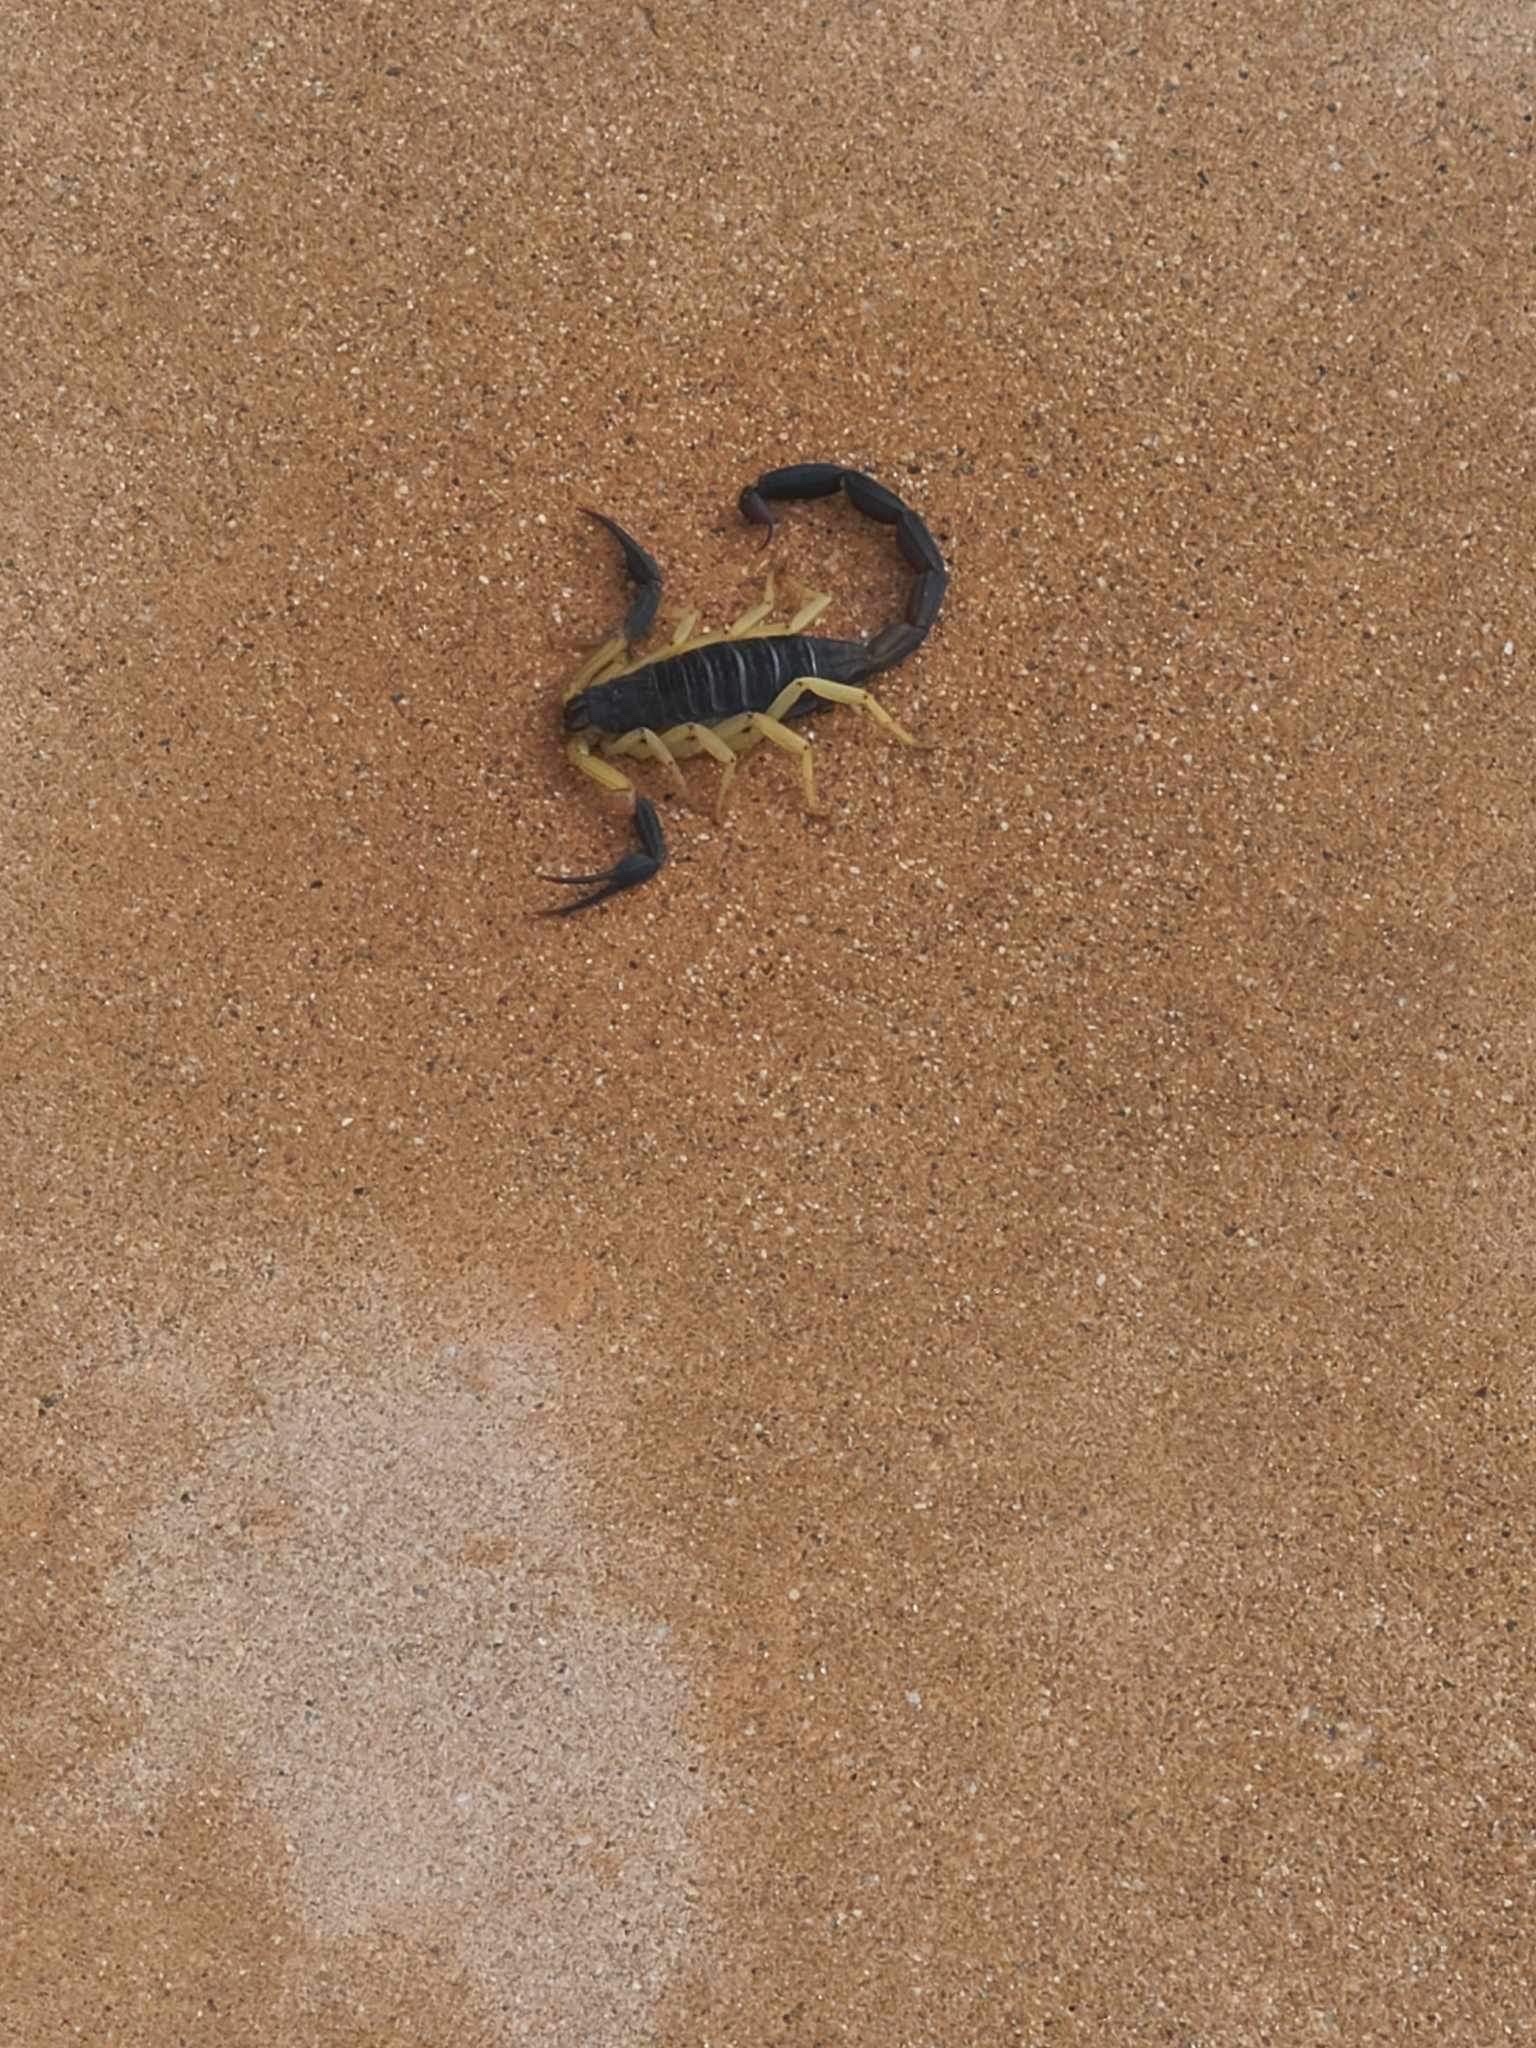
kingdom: Animalia
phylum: Arthropoda
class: Arachnida
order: Scorpiones
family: Buthidae
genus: Centruroides
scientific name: Centruroides fulvipes
